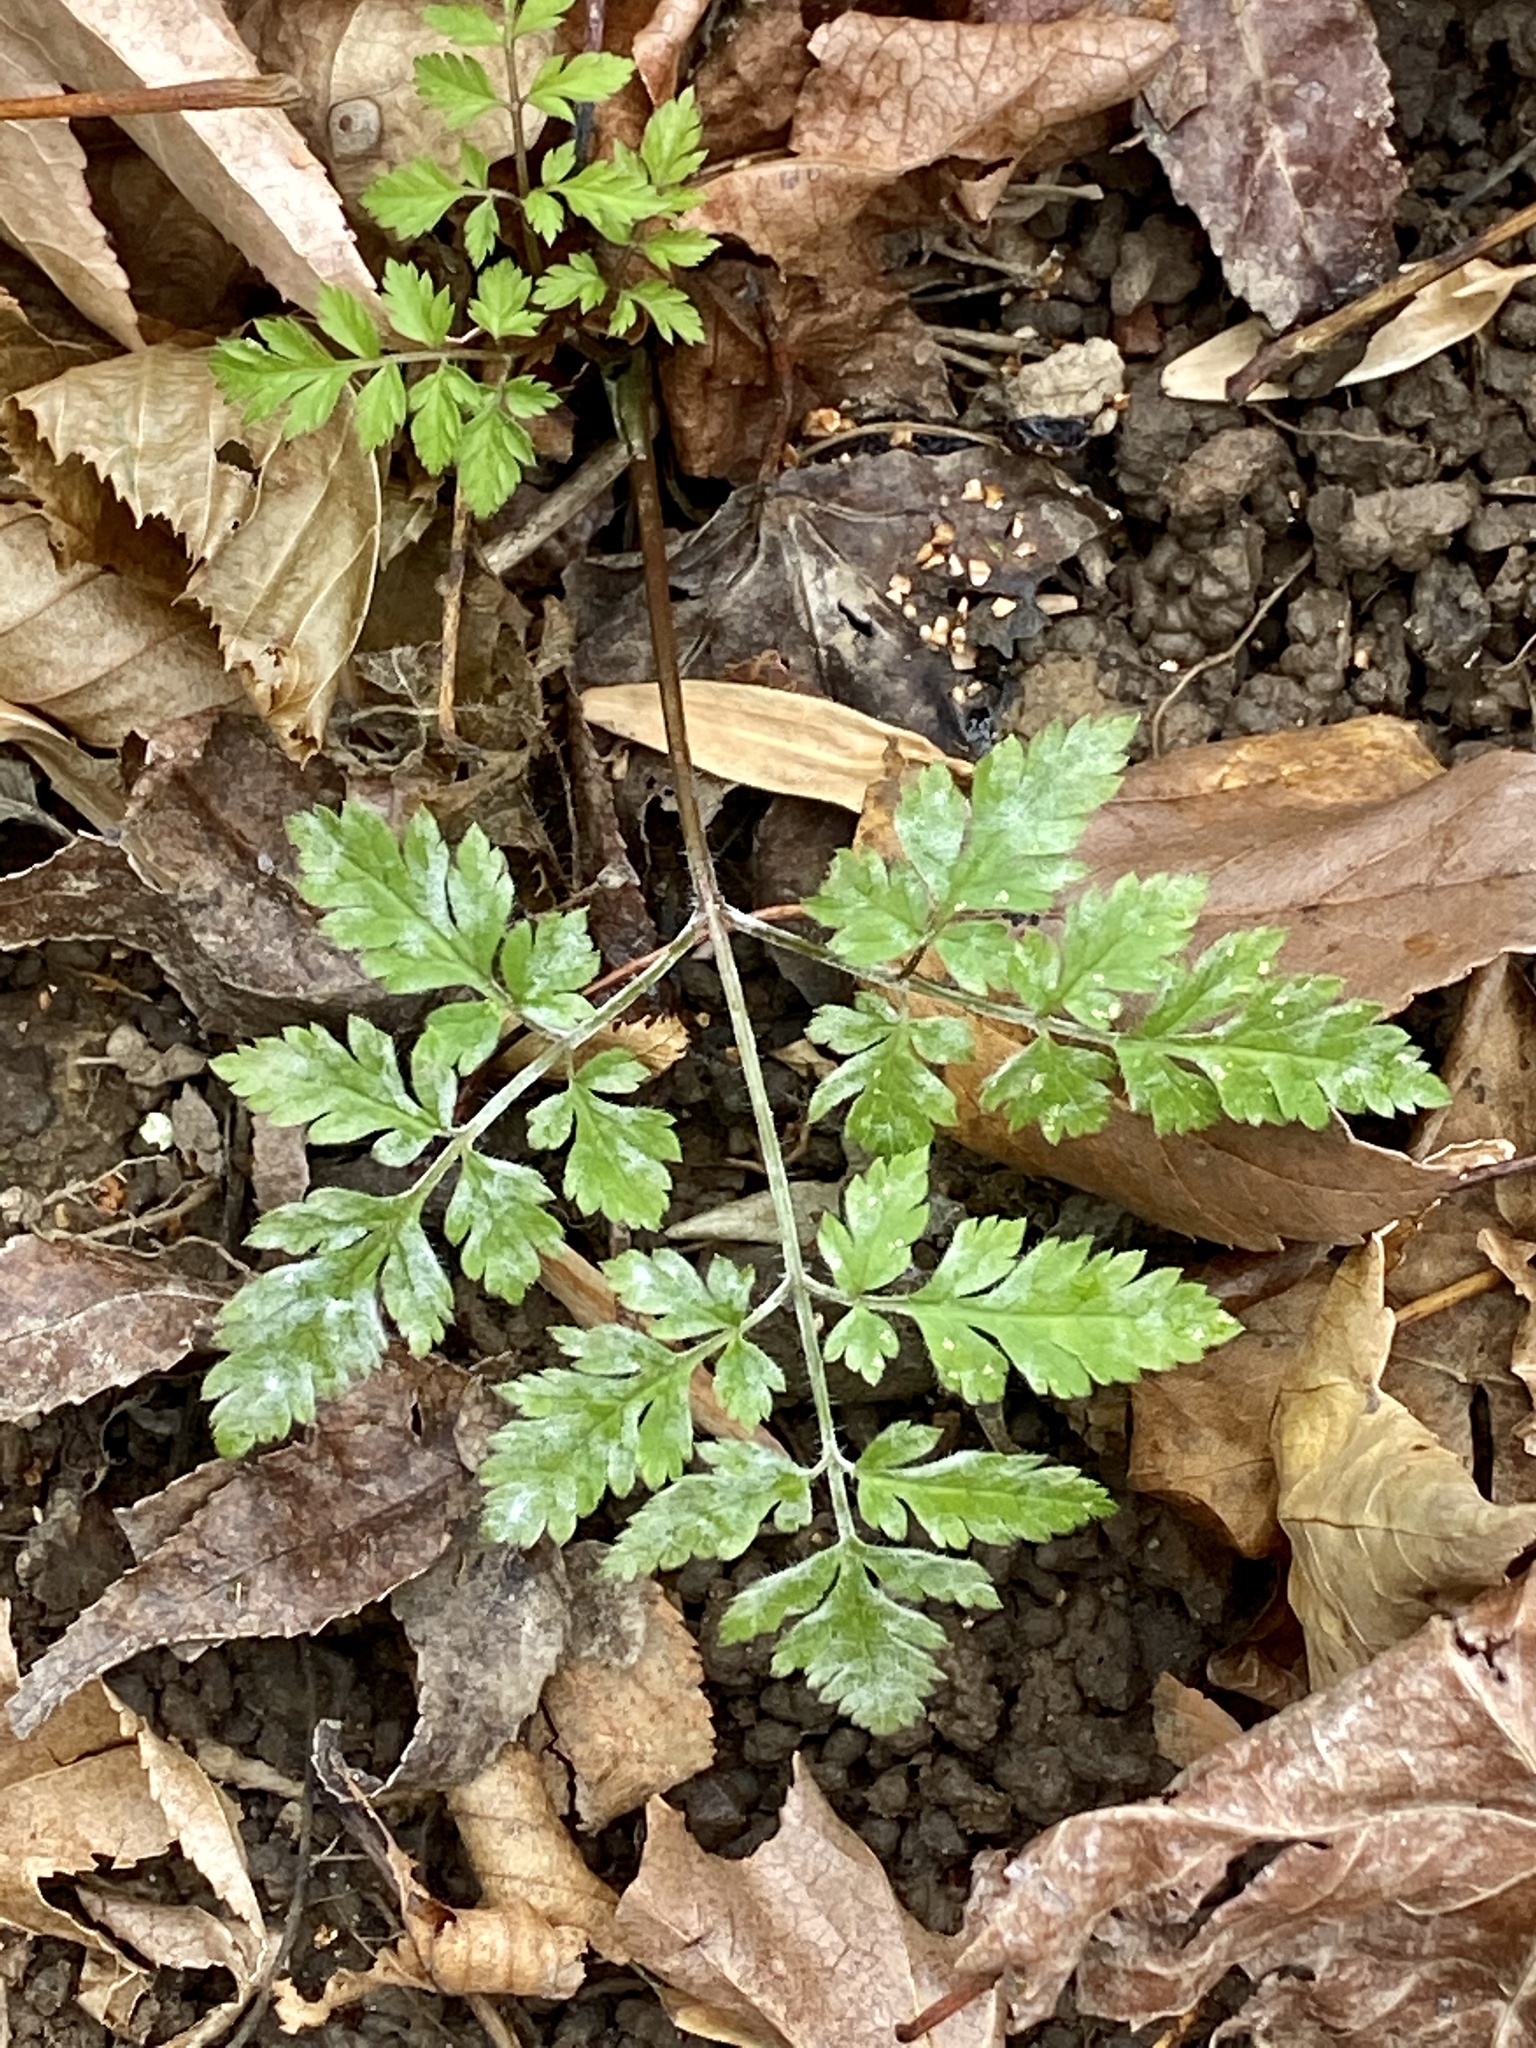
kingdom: Plantae
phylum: Tracheophyta
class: Magnoliopsida
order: Apiales
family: Apiaceae
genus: Osmorhiza
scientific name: Osmorhiza claytonii
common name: Hairy sweet cicely
